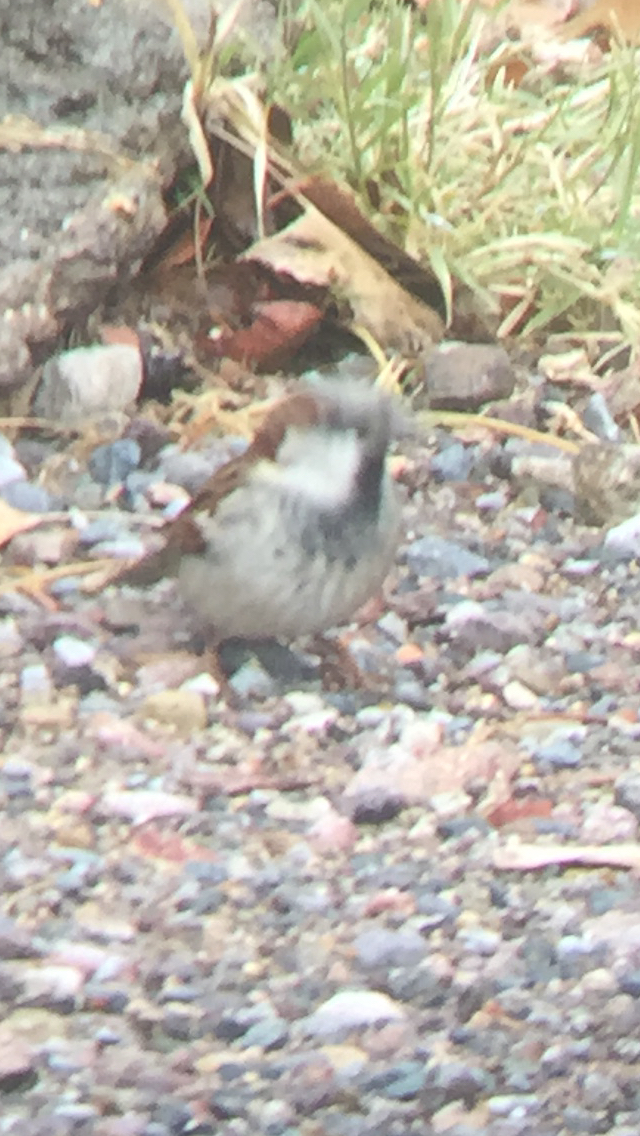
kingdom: Animalia
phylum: Chordata
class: Aves
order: Passeriformes
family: Passeridae
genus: Passer
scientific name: Passer domesticus
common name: House sparrow
